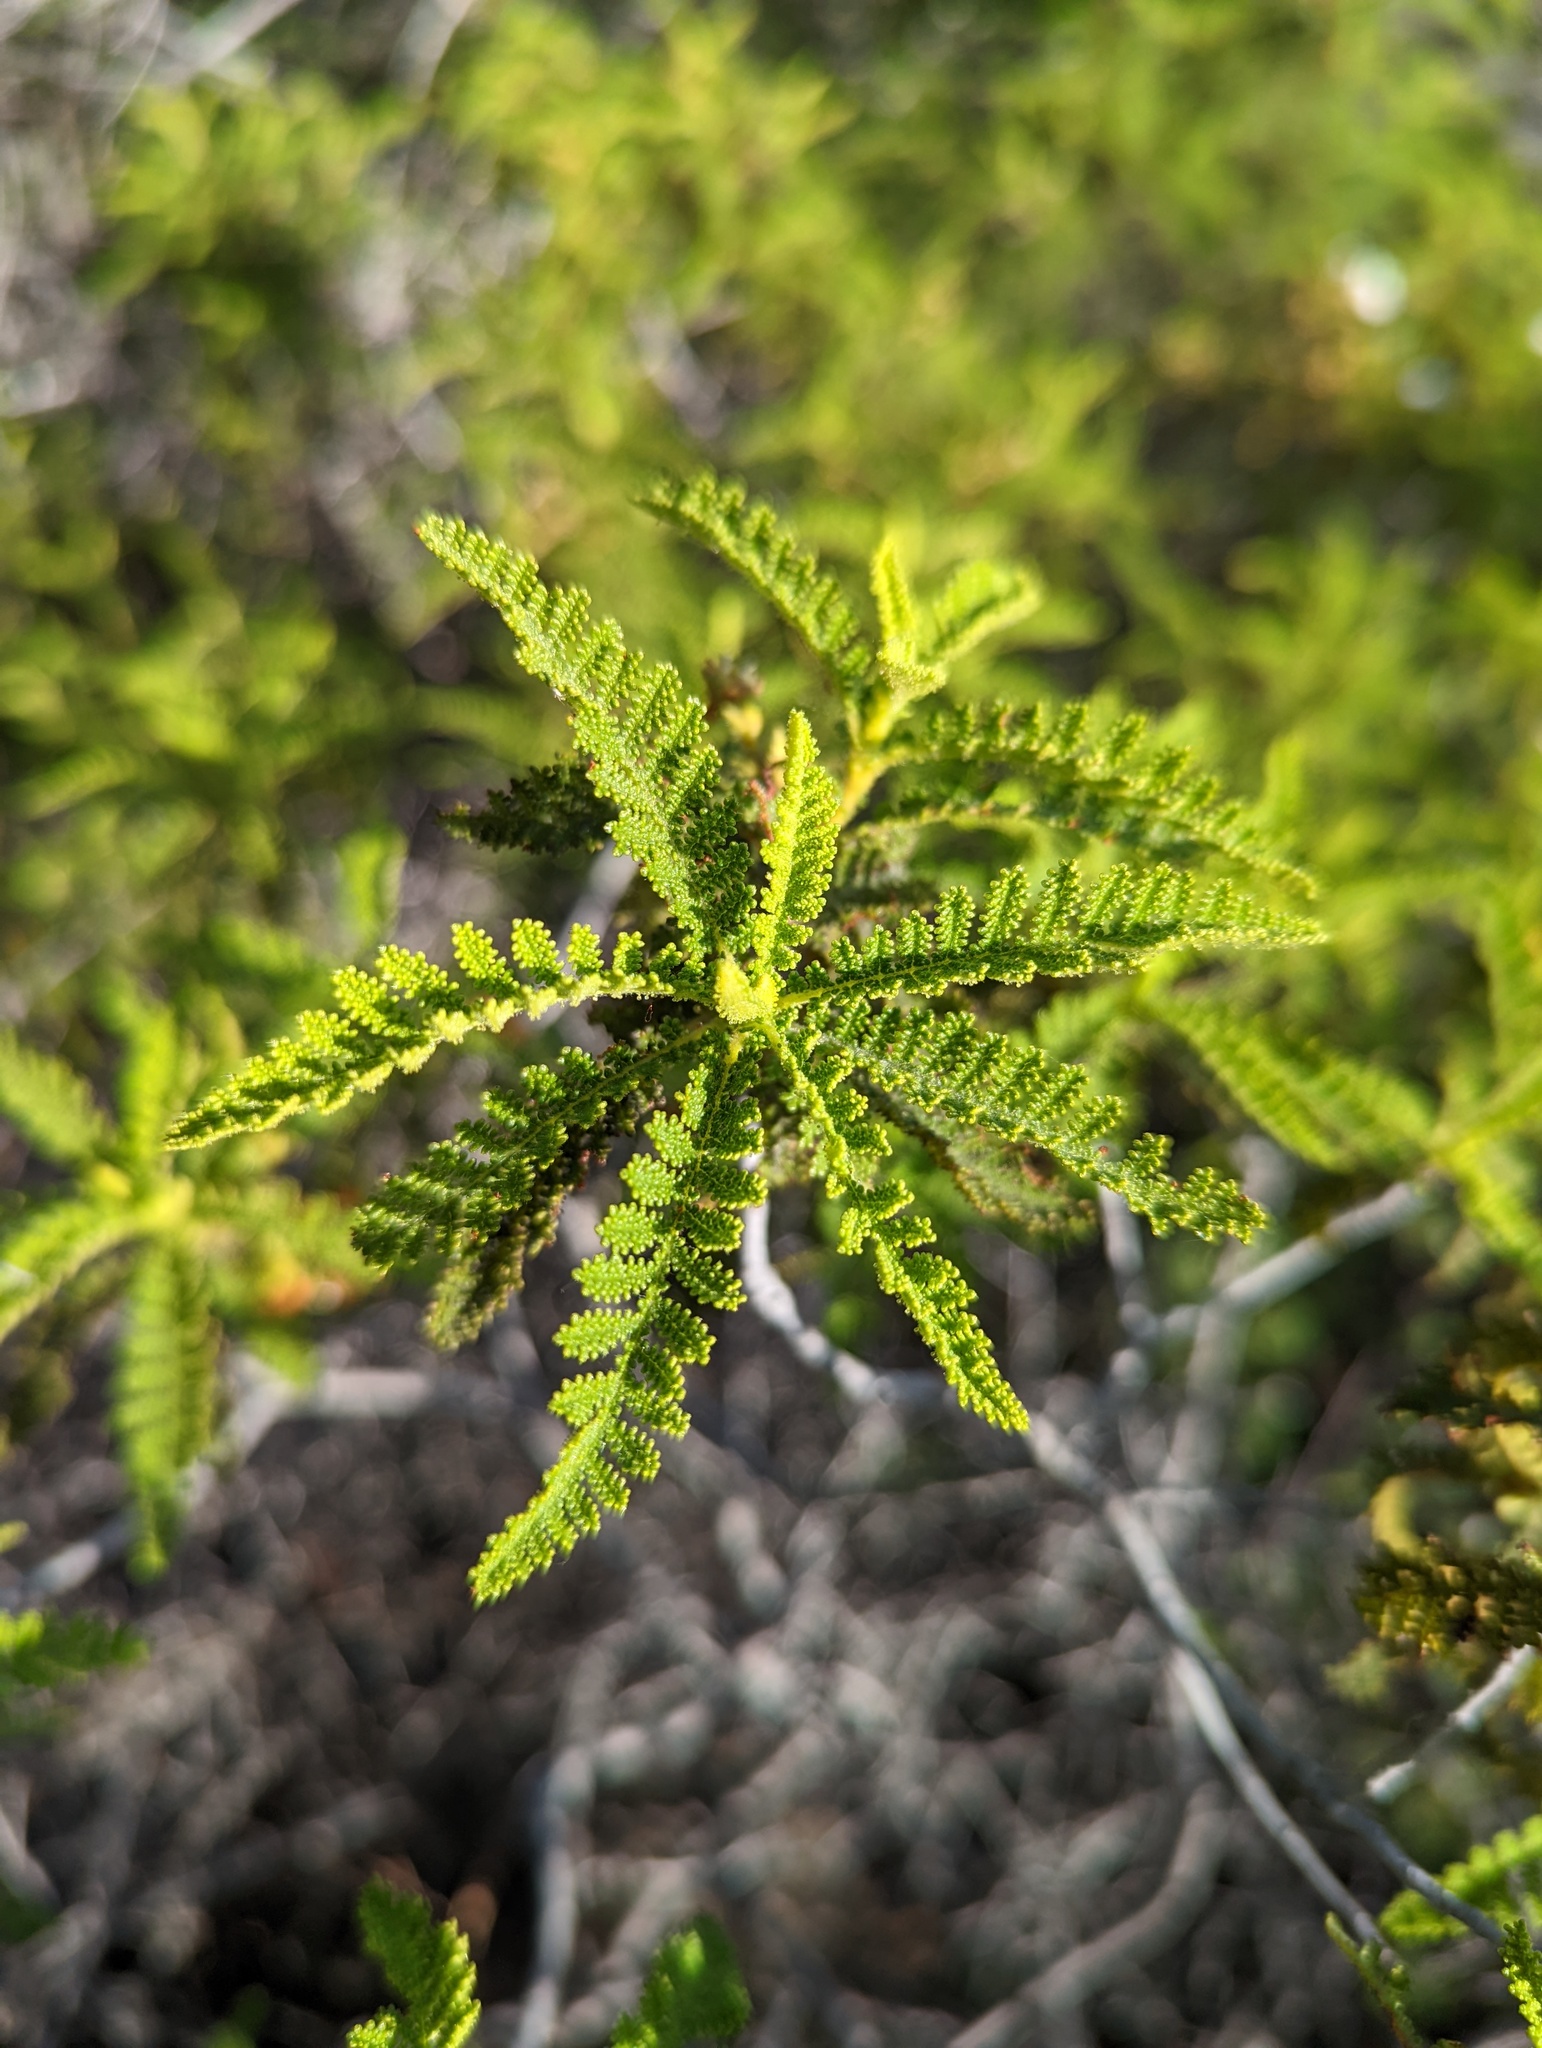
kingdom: Plantae
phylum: Tracheophyta
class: Magnoliopsida
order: Rosales
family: Rosaceae
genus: Chamaebatia
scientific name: Chamaebatia australis
